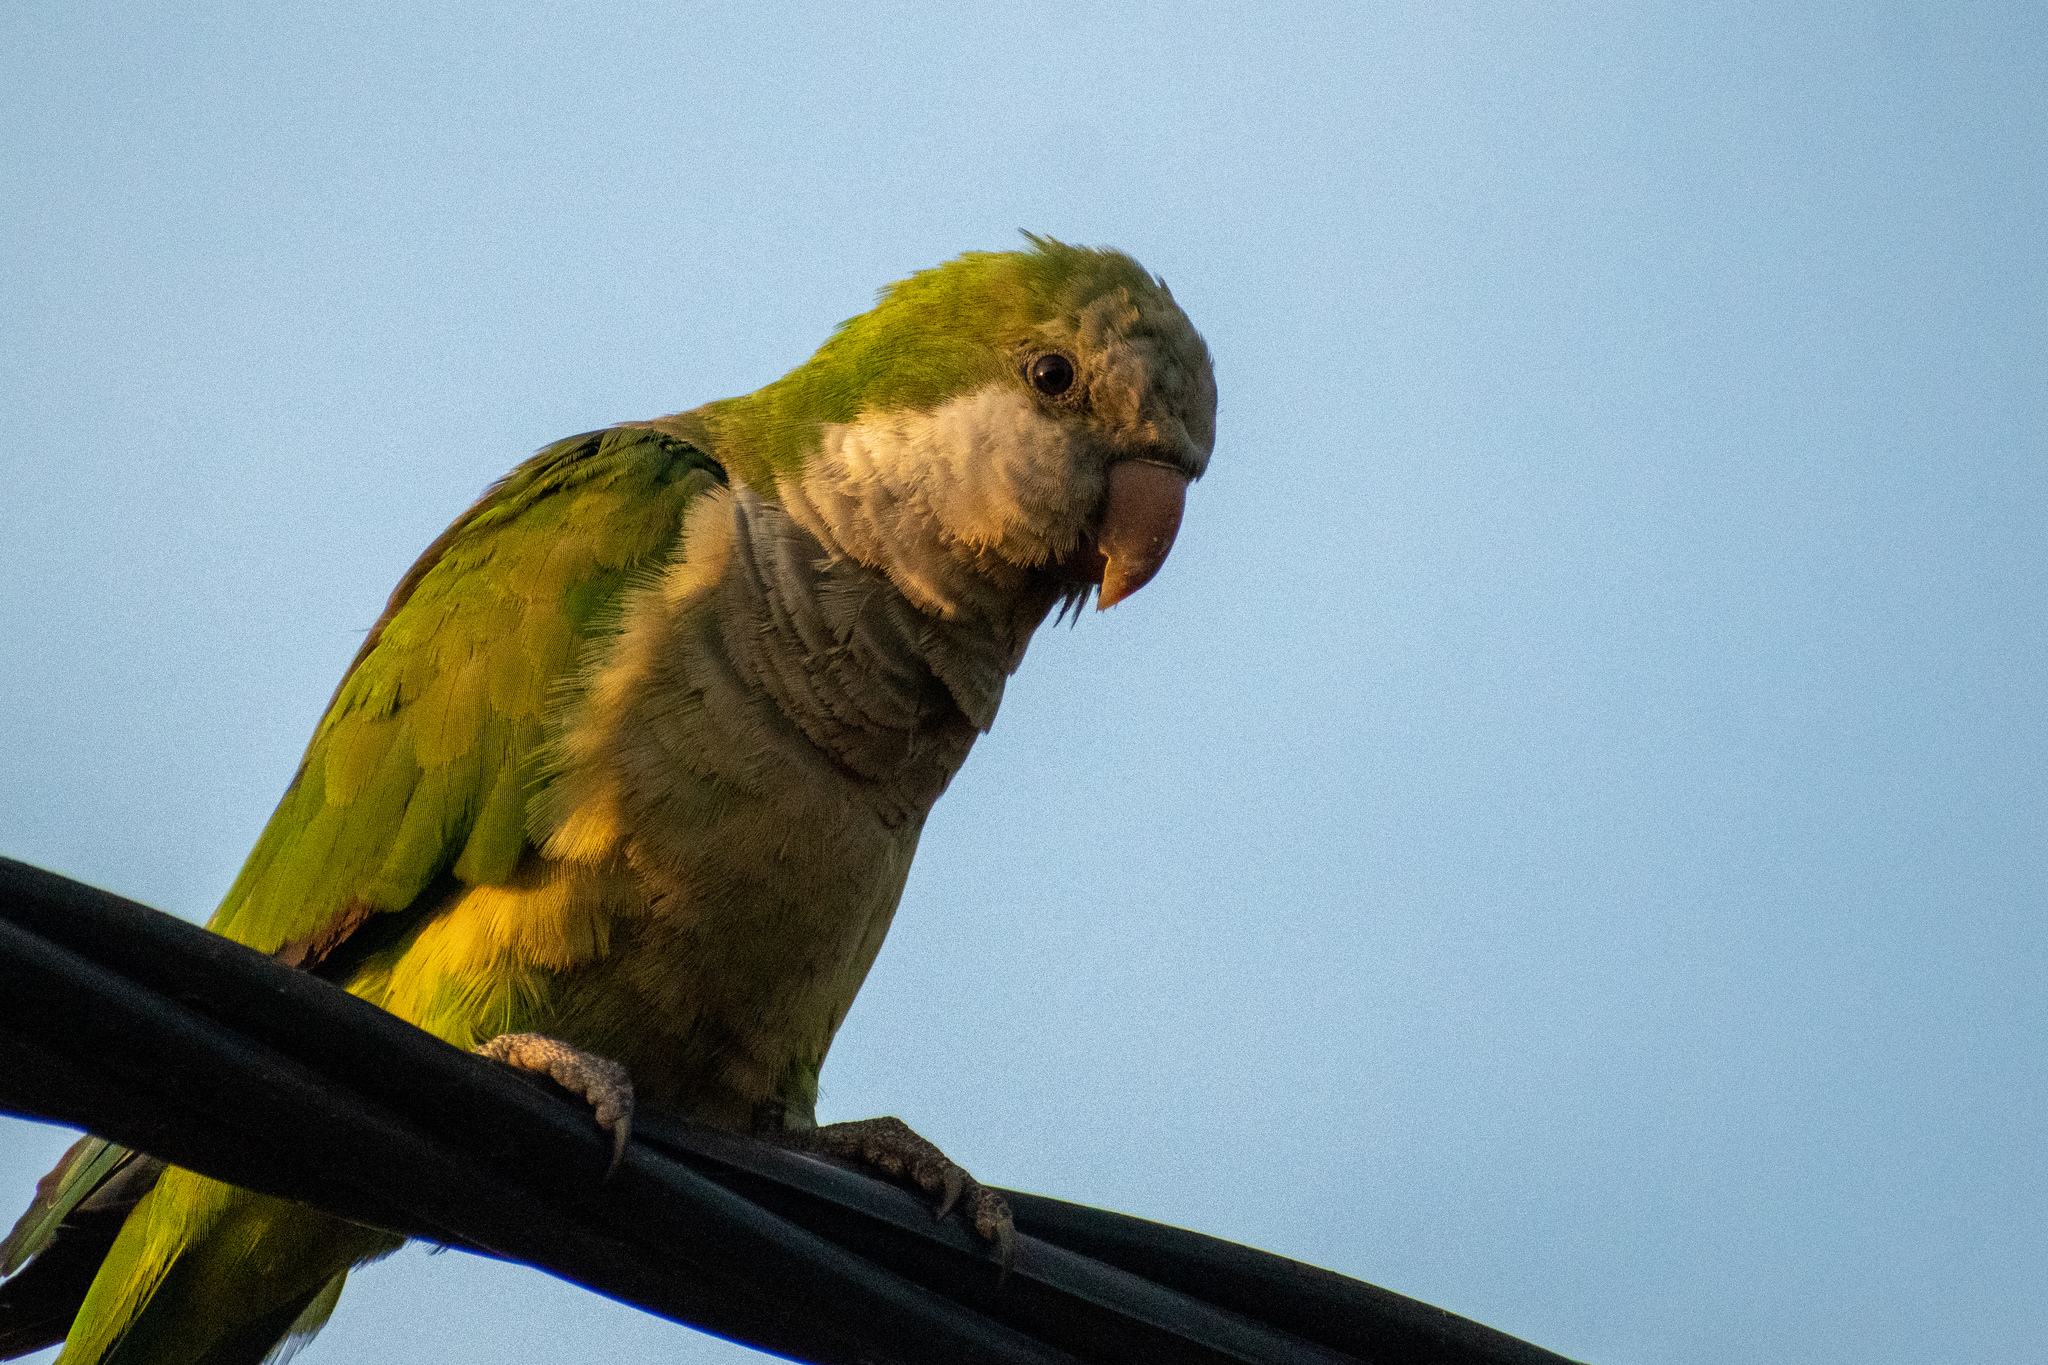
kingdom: Animalia
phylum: Chordata
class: Aves
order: Psittaciformes
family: Psittacidae
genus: Myiopsitta
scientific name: Myiopsitta monachus
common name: Monk parakeet
